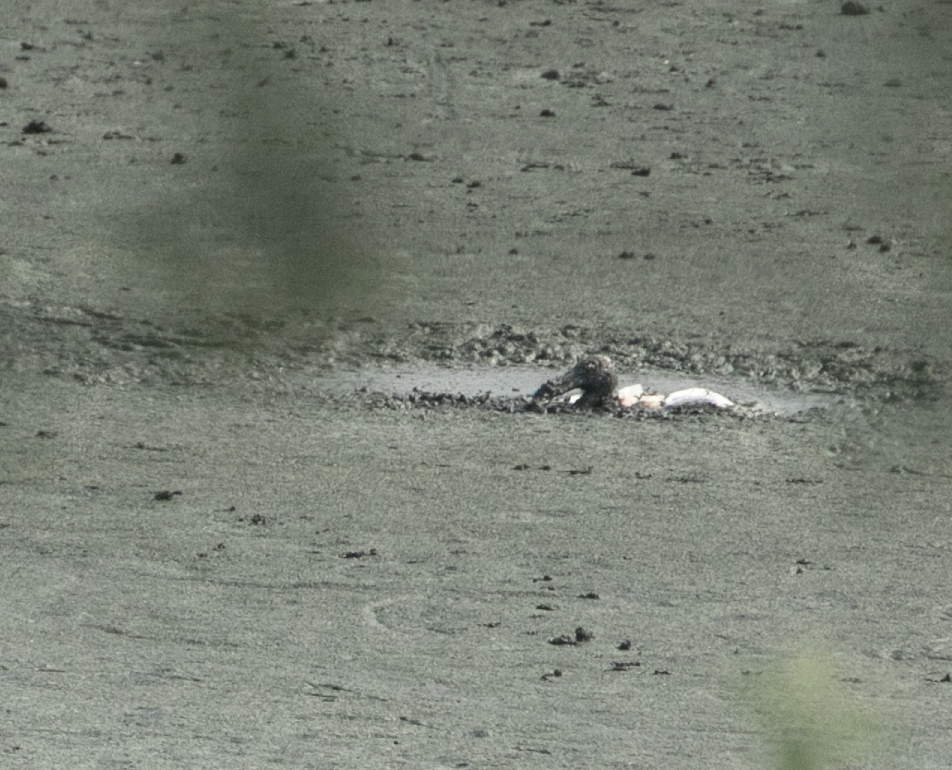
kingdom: Animalia
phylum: Chordata
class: Aves
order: Pelecaniformes
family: Threskiornithidae
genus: Threskiornis
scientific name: Threskiornis aethiopicus
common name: Sacred ibis
